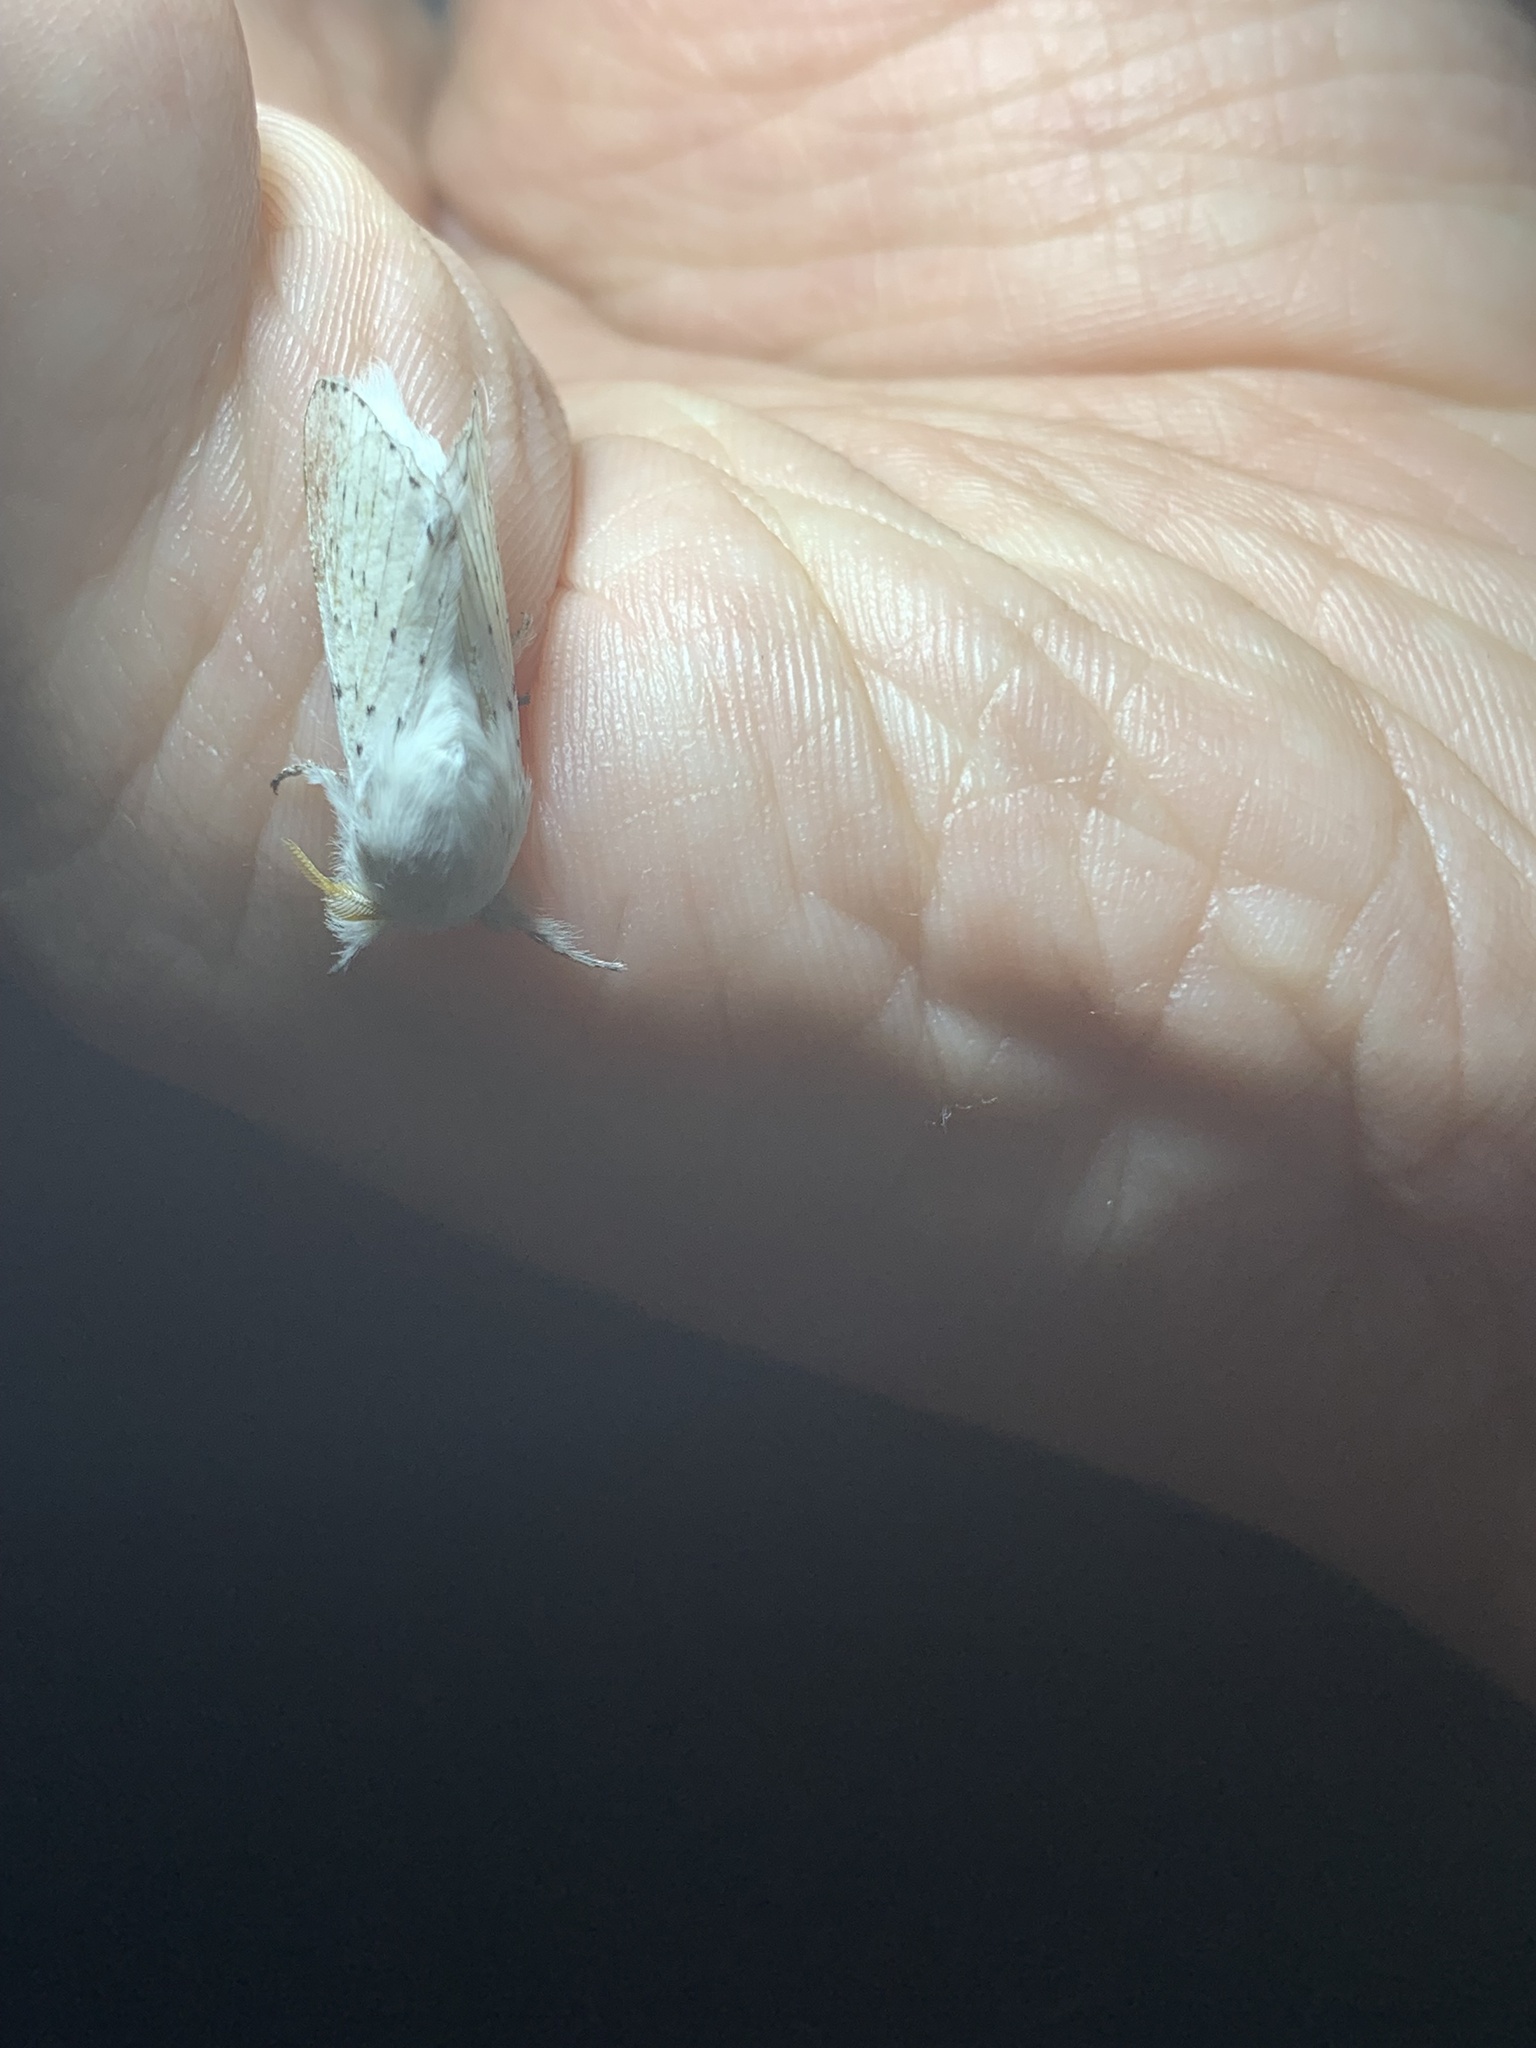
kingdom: Animalia
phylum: Arthropoda
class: Insecta
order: Lepidoptera
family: Lasiocampidae
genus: Artace
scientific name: Artace cribrarius
